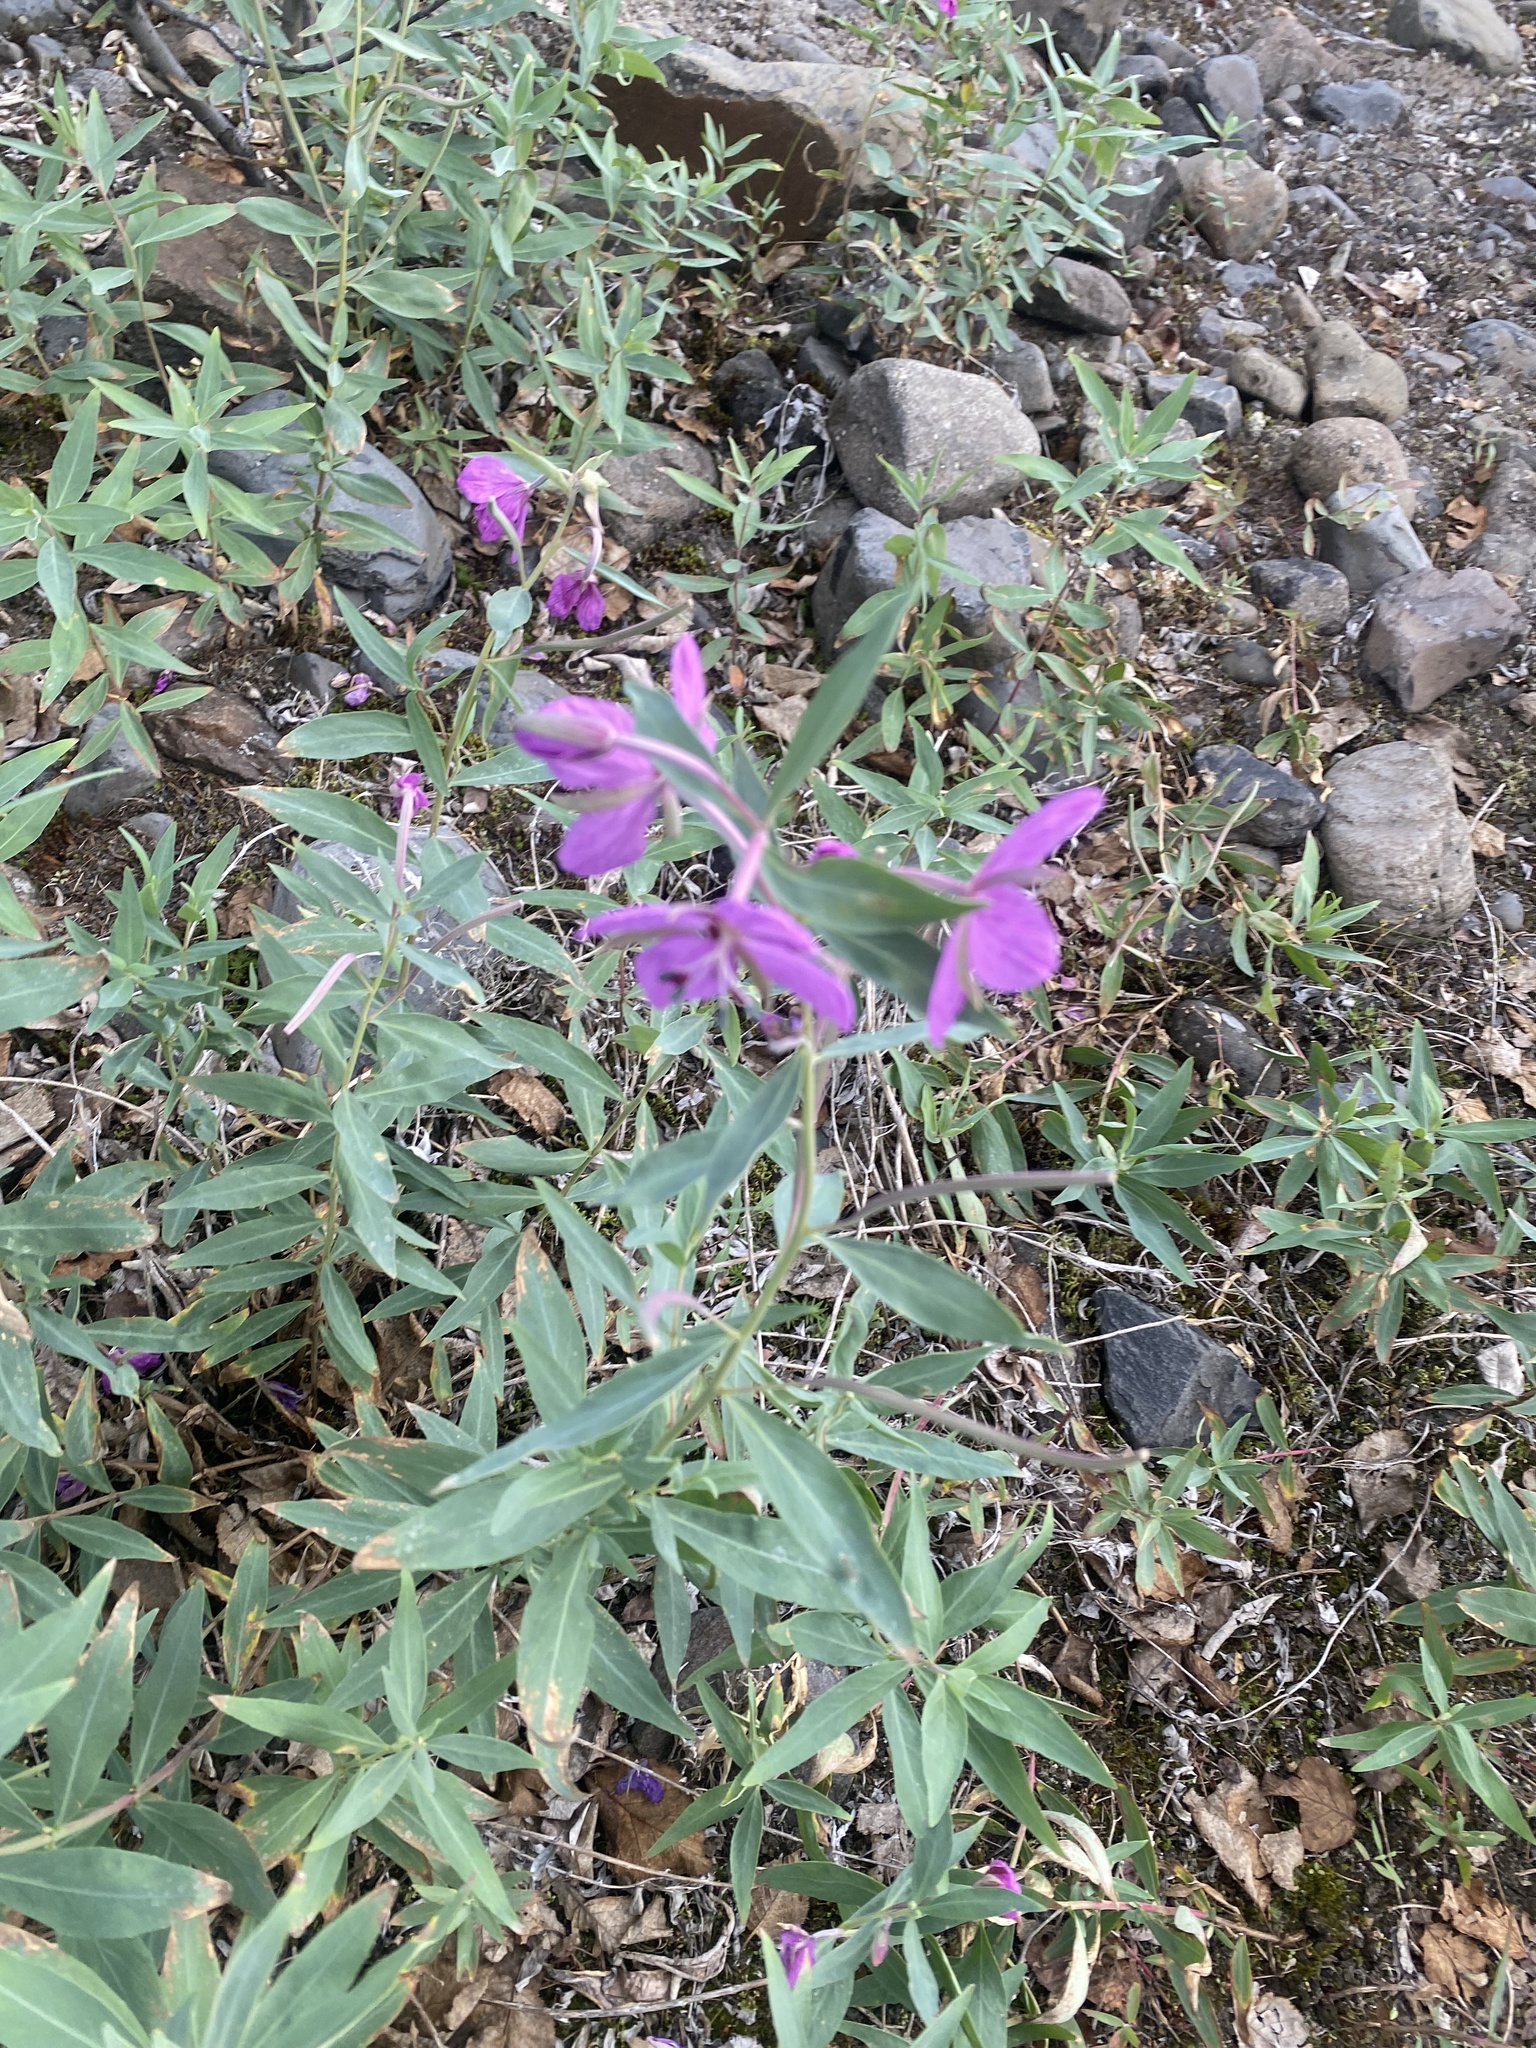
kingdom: Plantae
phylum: Tracheophyta
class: Magnoliopsida
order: Myrtales
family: Onagraceae
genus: Chamaenerion
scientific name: Chamaenerion latifolium
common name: Dwarf fireweed
